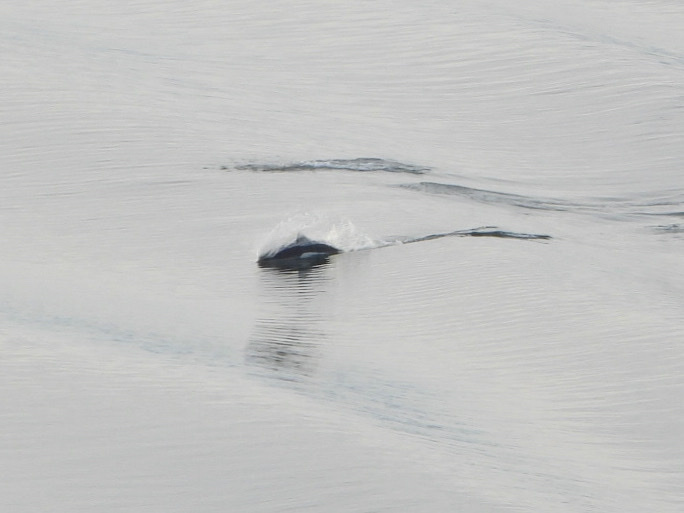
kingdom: Animalia
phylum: Chordata
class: Mammalia
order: Cetacea
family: Phocoenidae
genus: Phocoenoides
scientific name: Phocoenoides dalli
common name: Dall's porpoise
